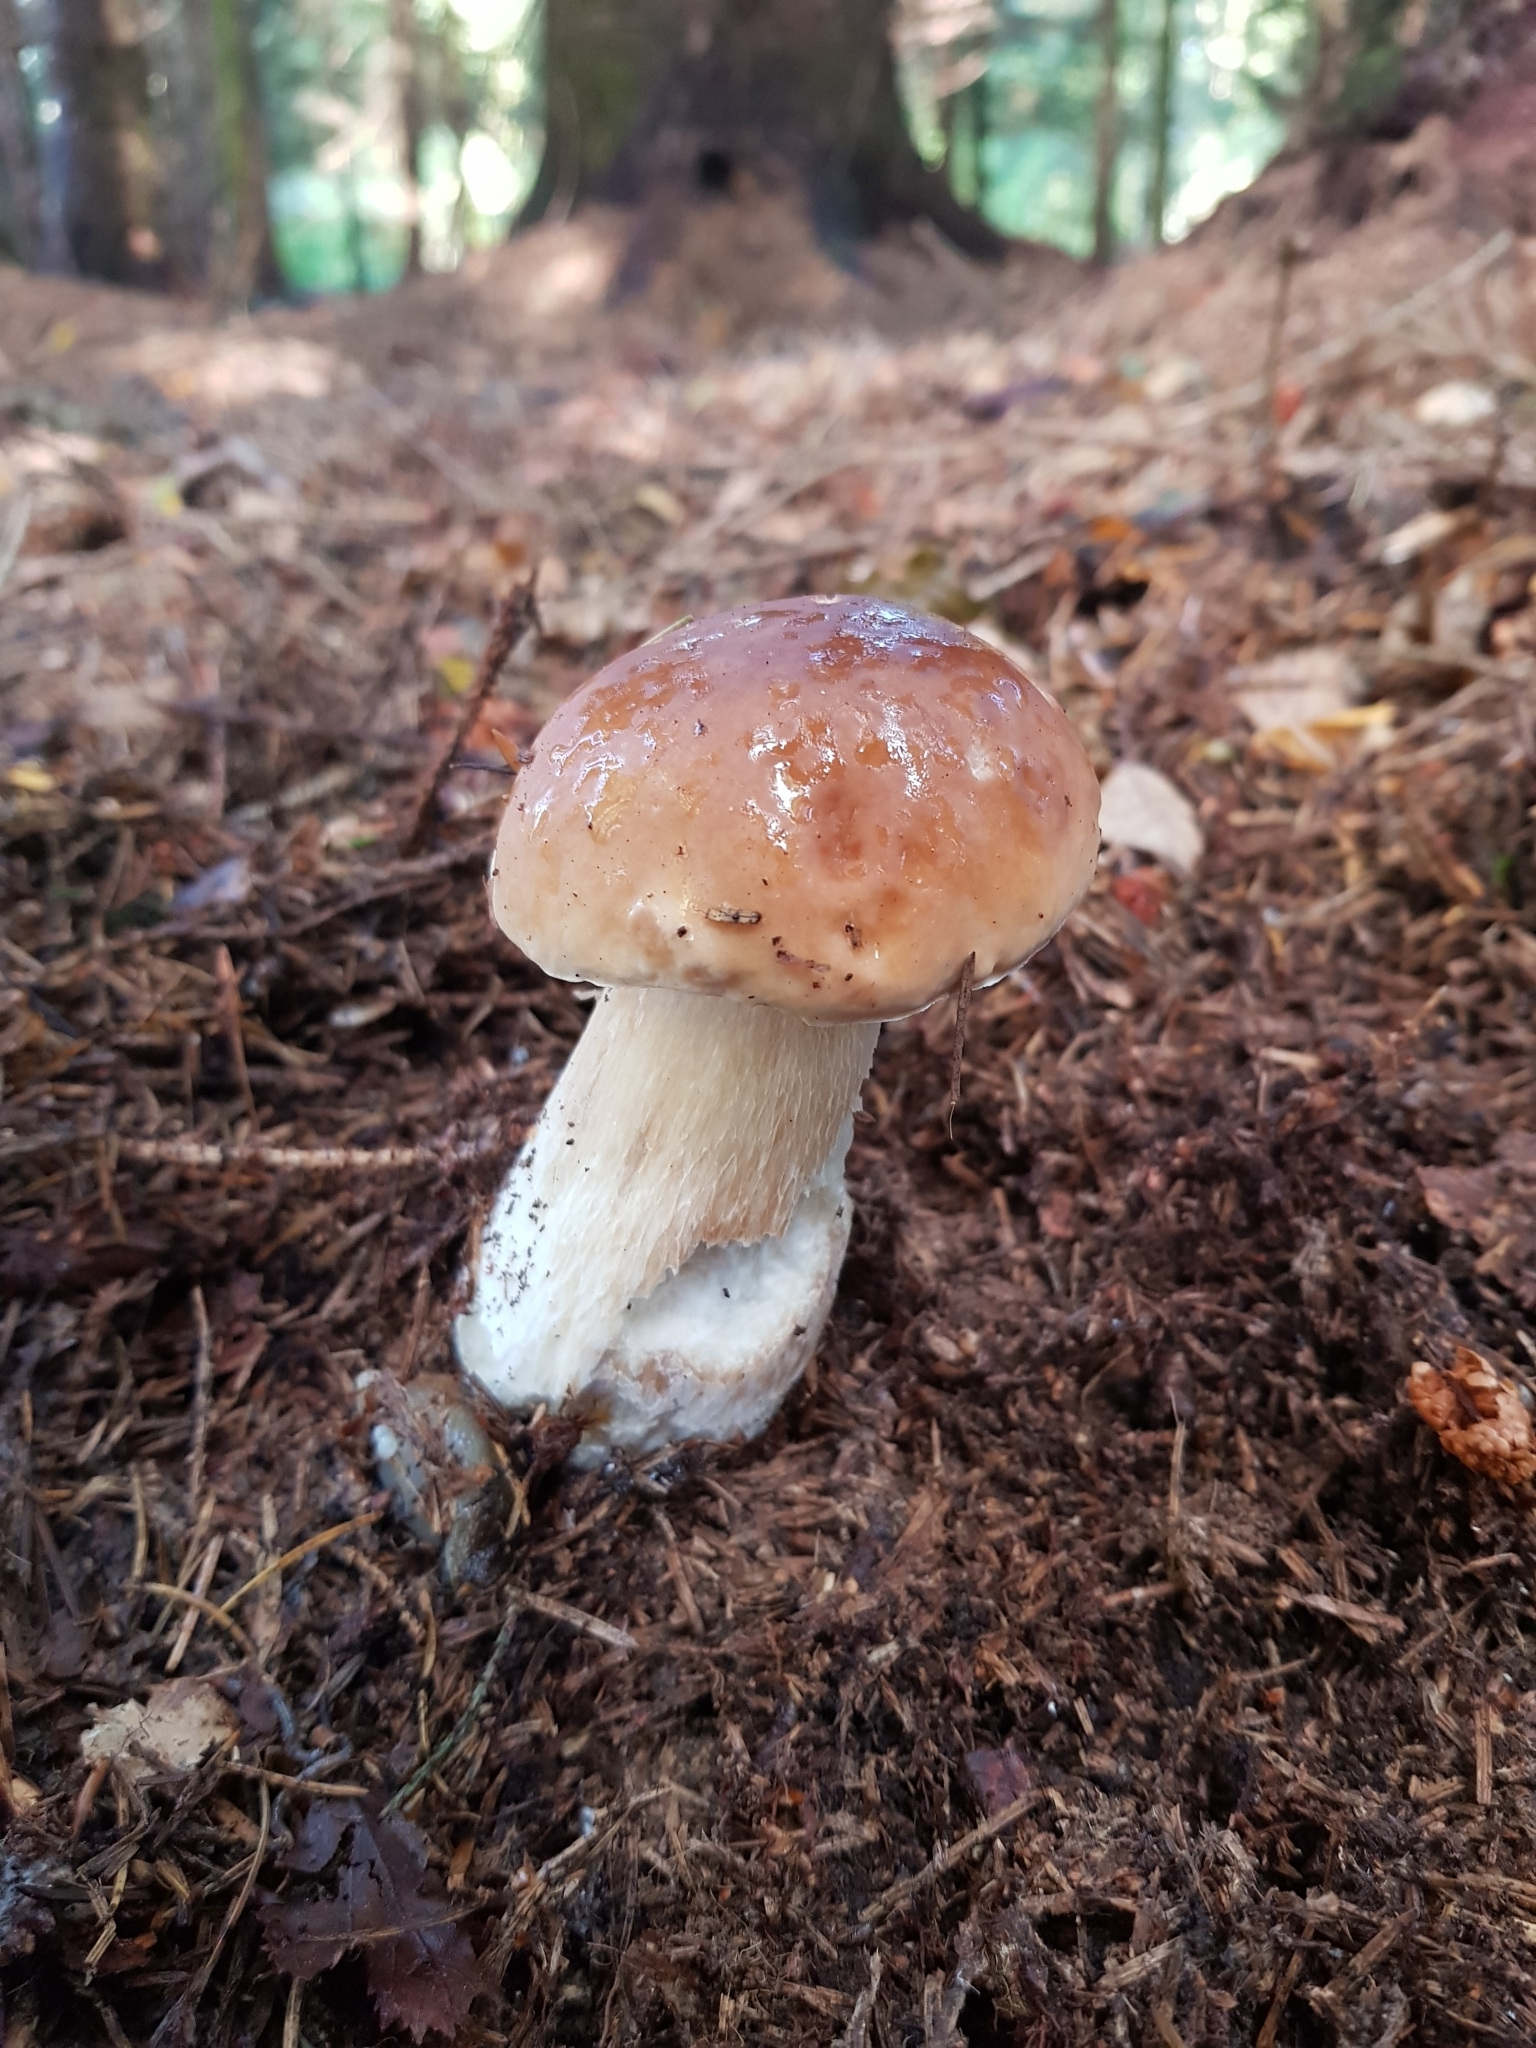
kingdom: Fungi
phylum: Basidiomycota
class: Agaricomycetes
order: Boletales
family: Boletaceae
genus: Boletus
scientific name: Boletus edulis
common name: Cep
